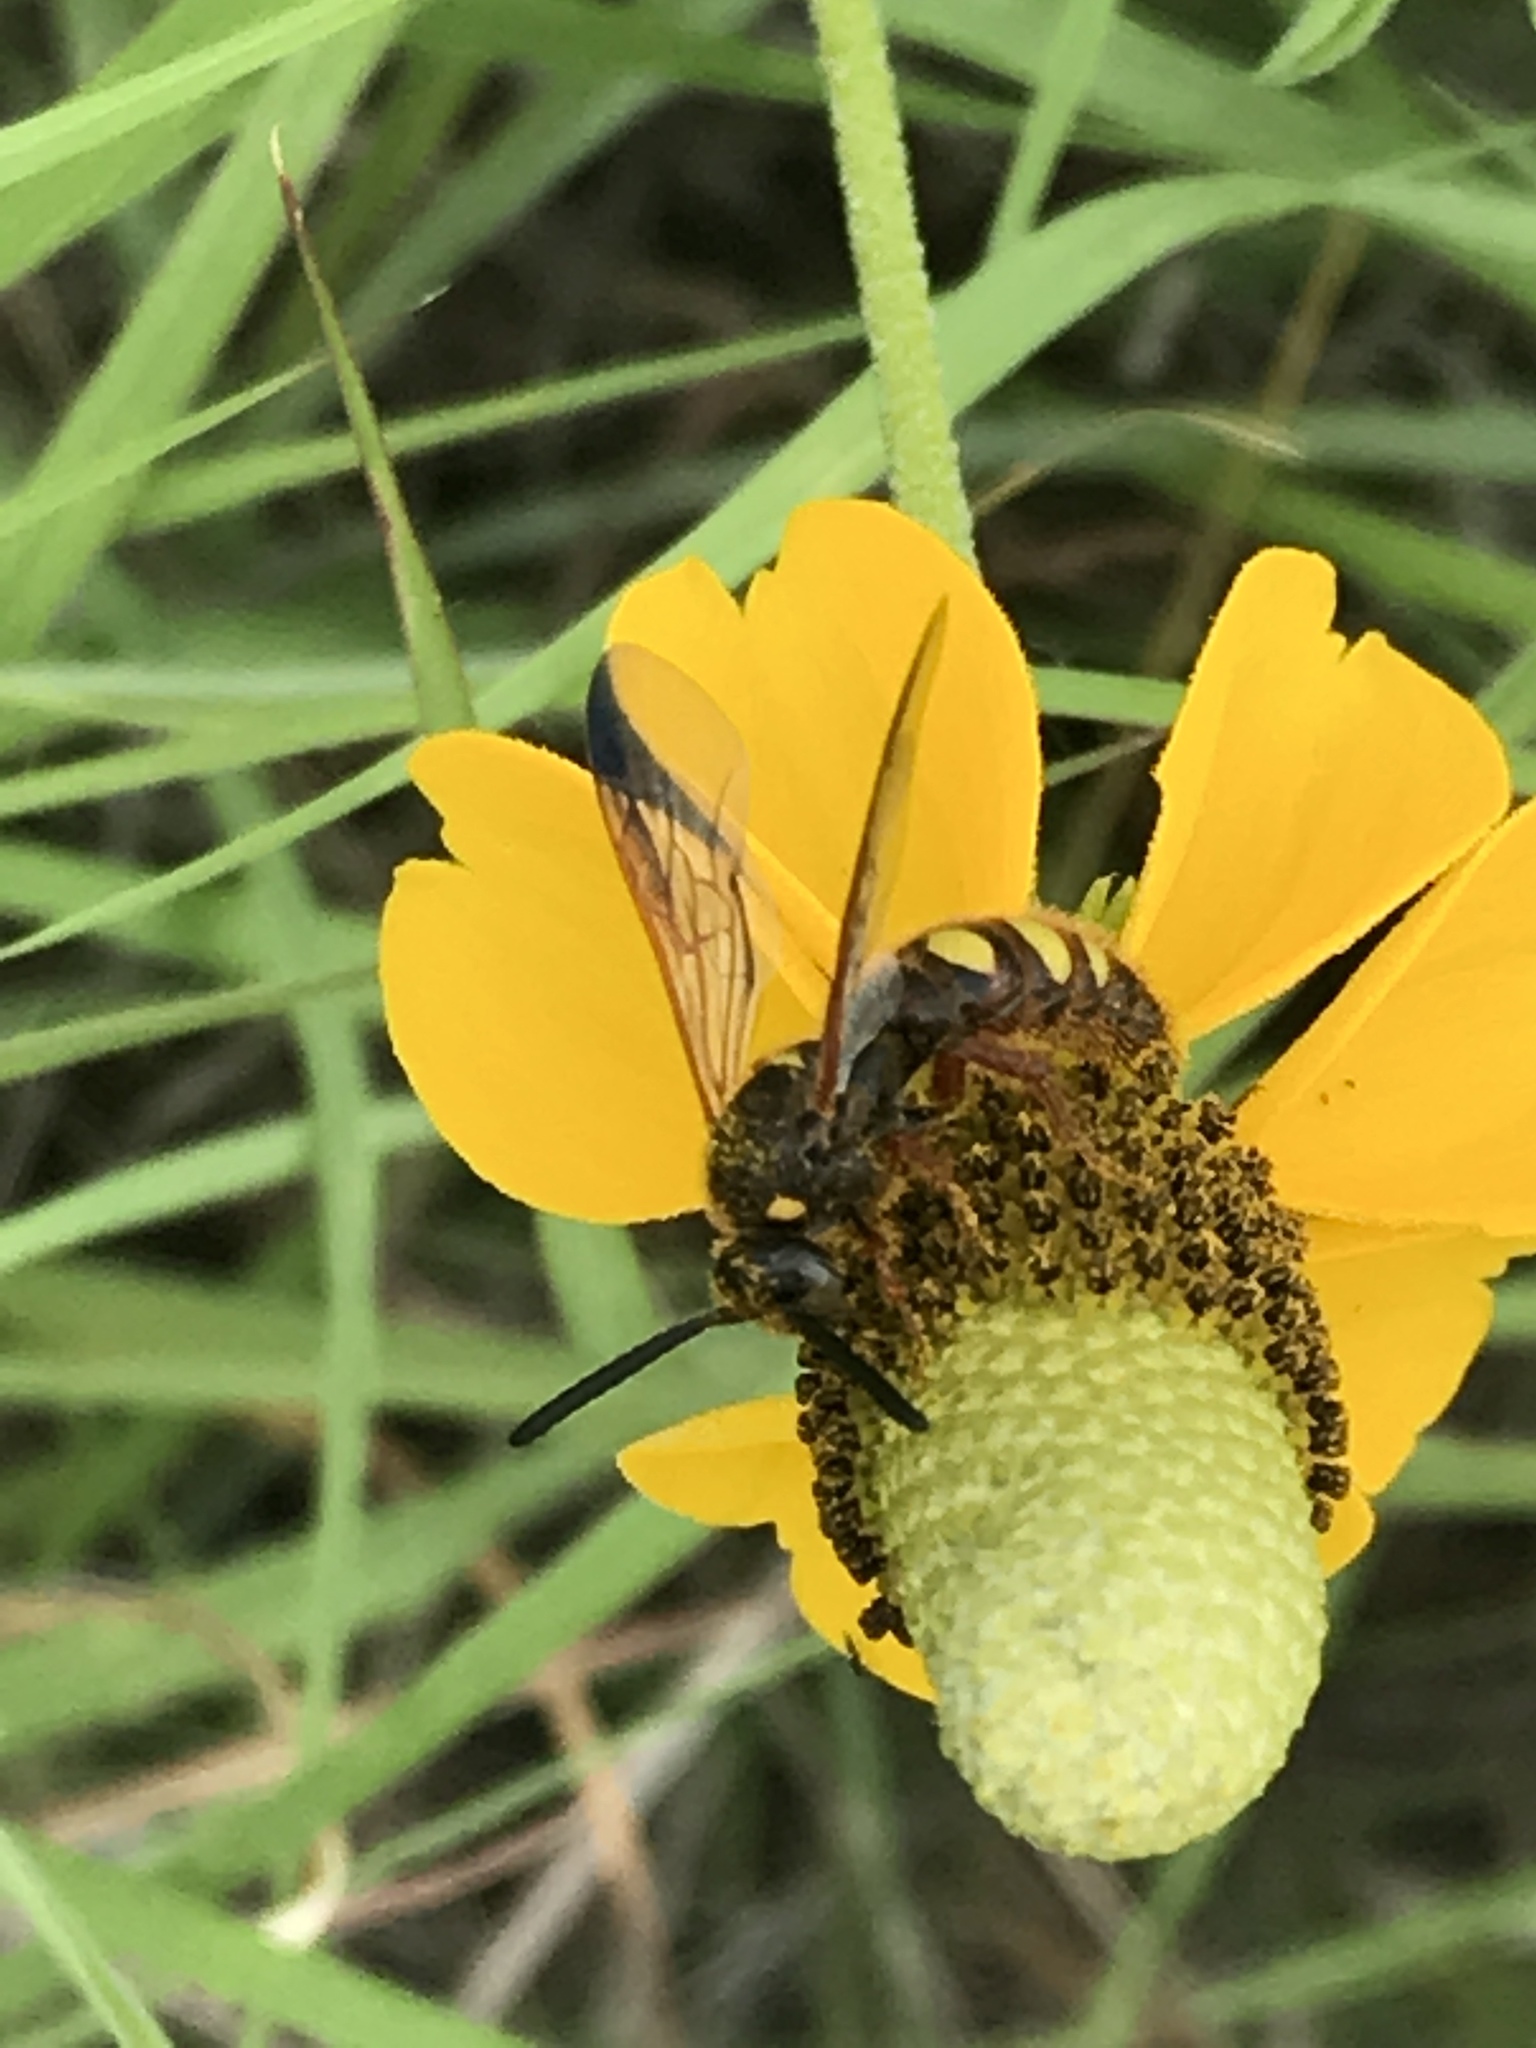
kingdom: Animalia
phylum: Arthropoda
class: Insecta
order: Hymenoptera
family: Scoliidae
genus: Scolia
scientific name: Scolia nobilitata
